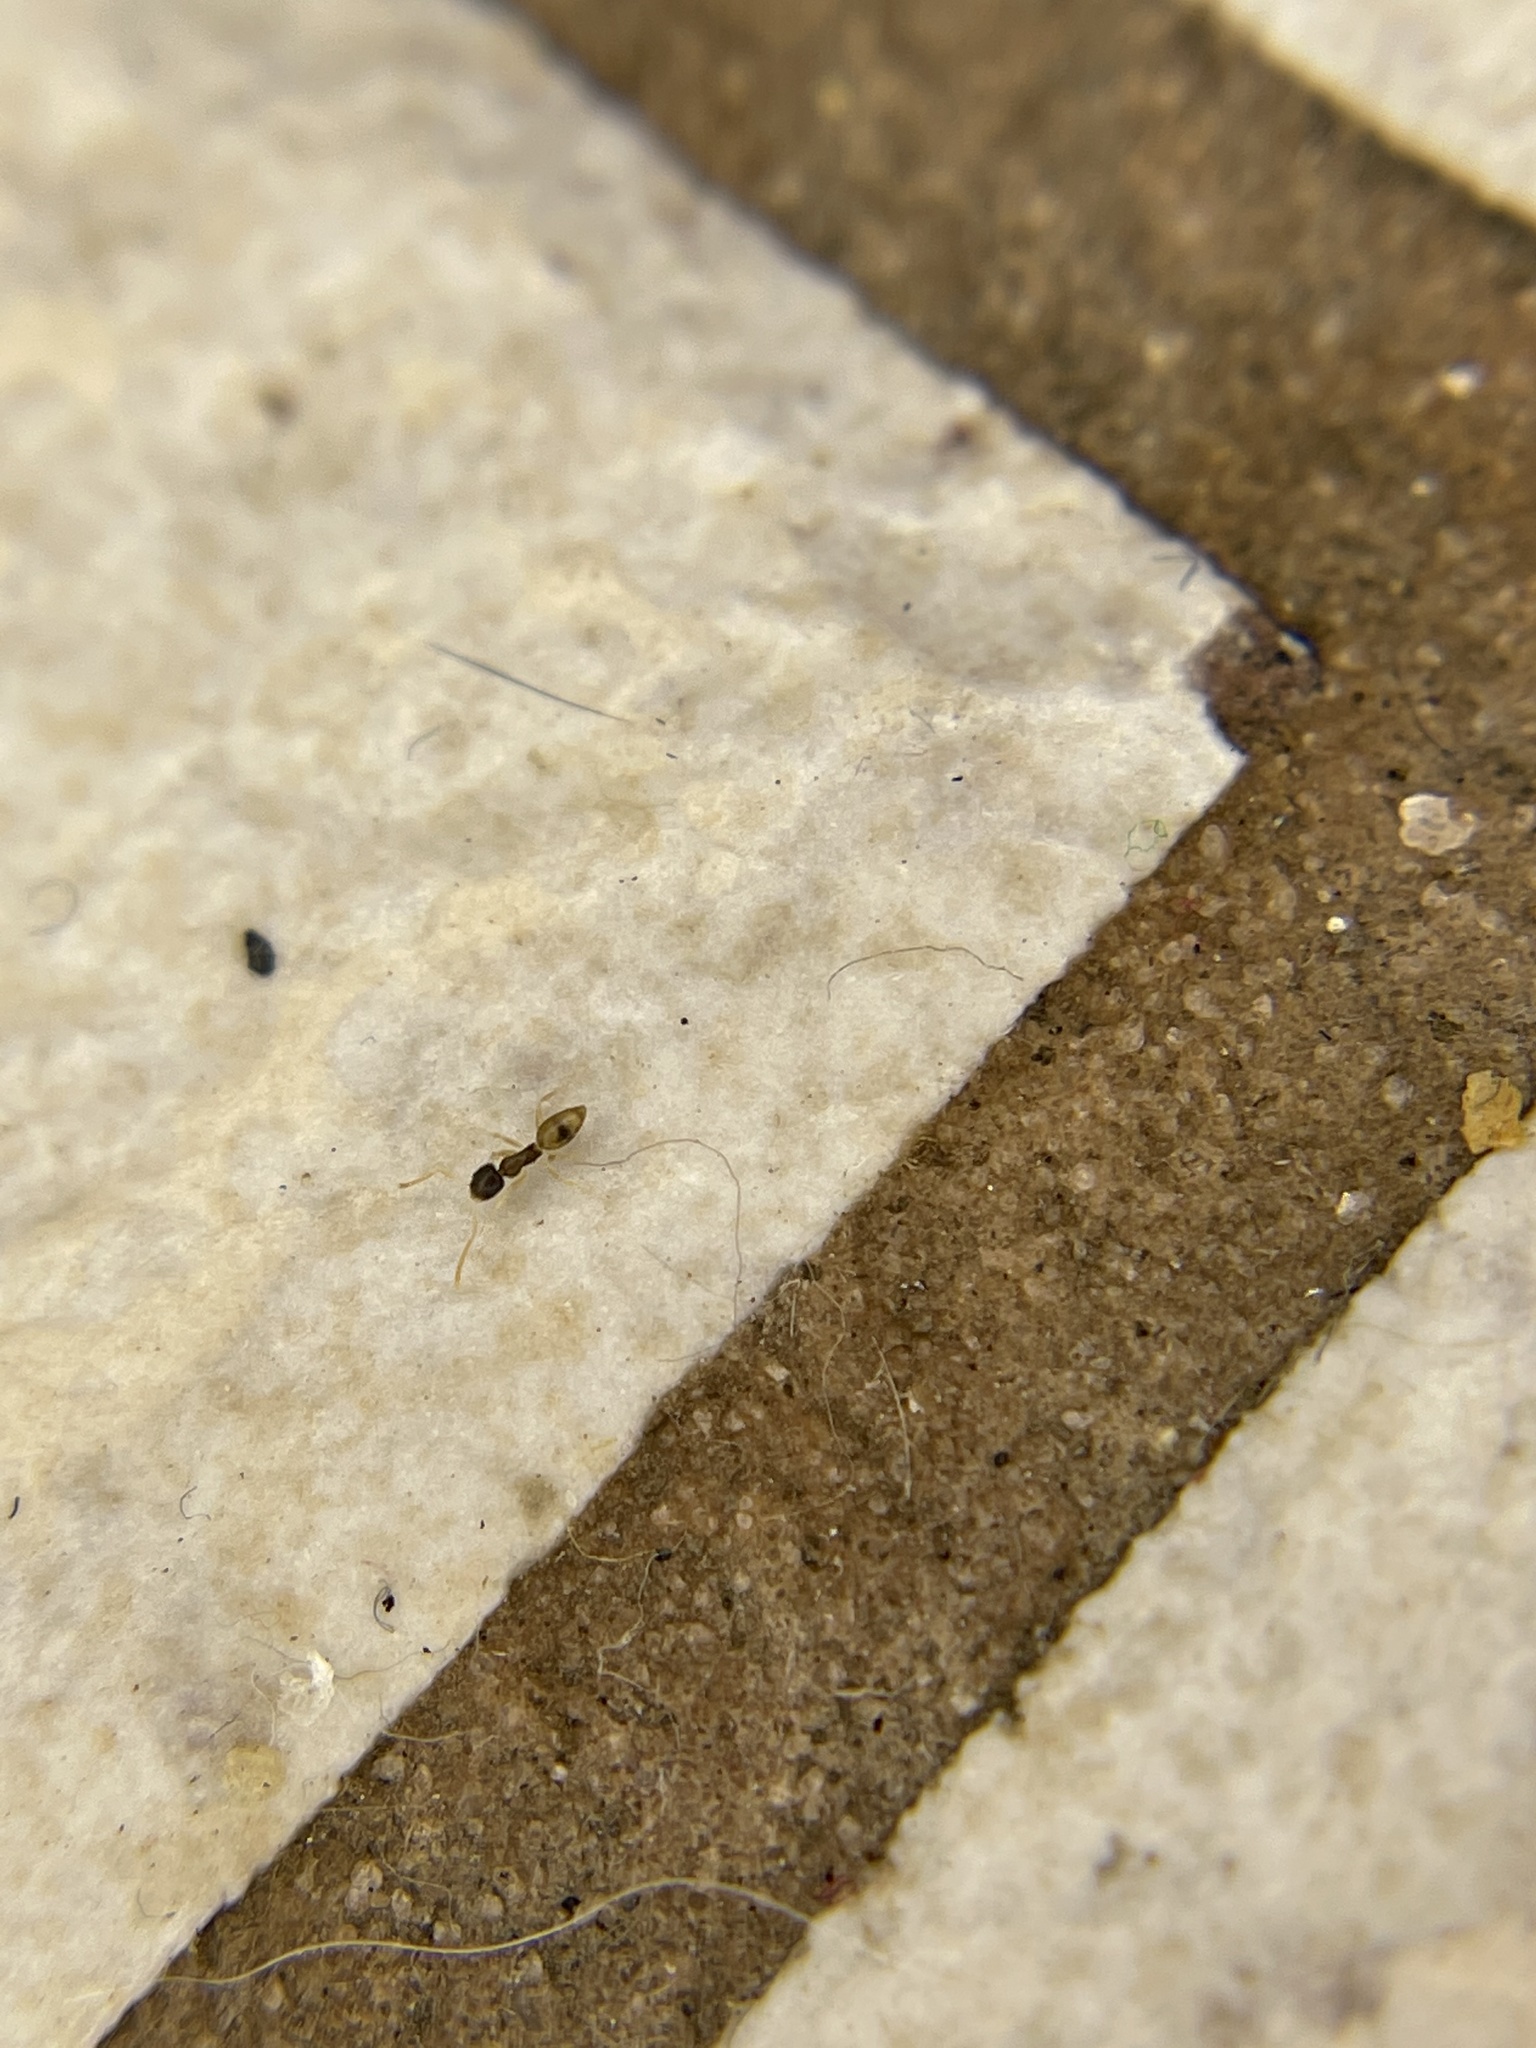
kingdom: Animalia
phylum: Arthropoda
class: Insecta
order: Hymenoptera
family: Formicidae
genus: Tapinoma
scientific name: Tapinoma melanocephalum
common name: Ghost ant
